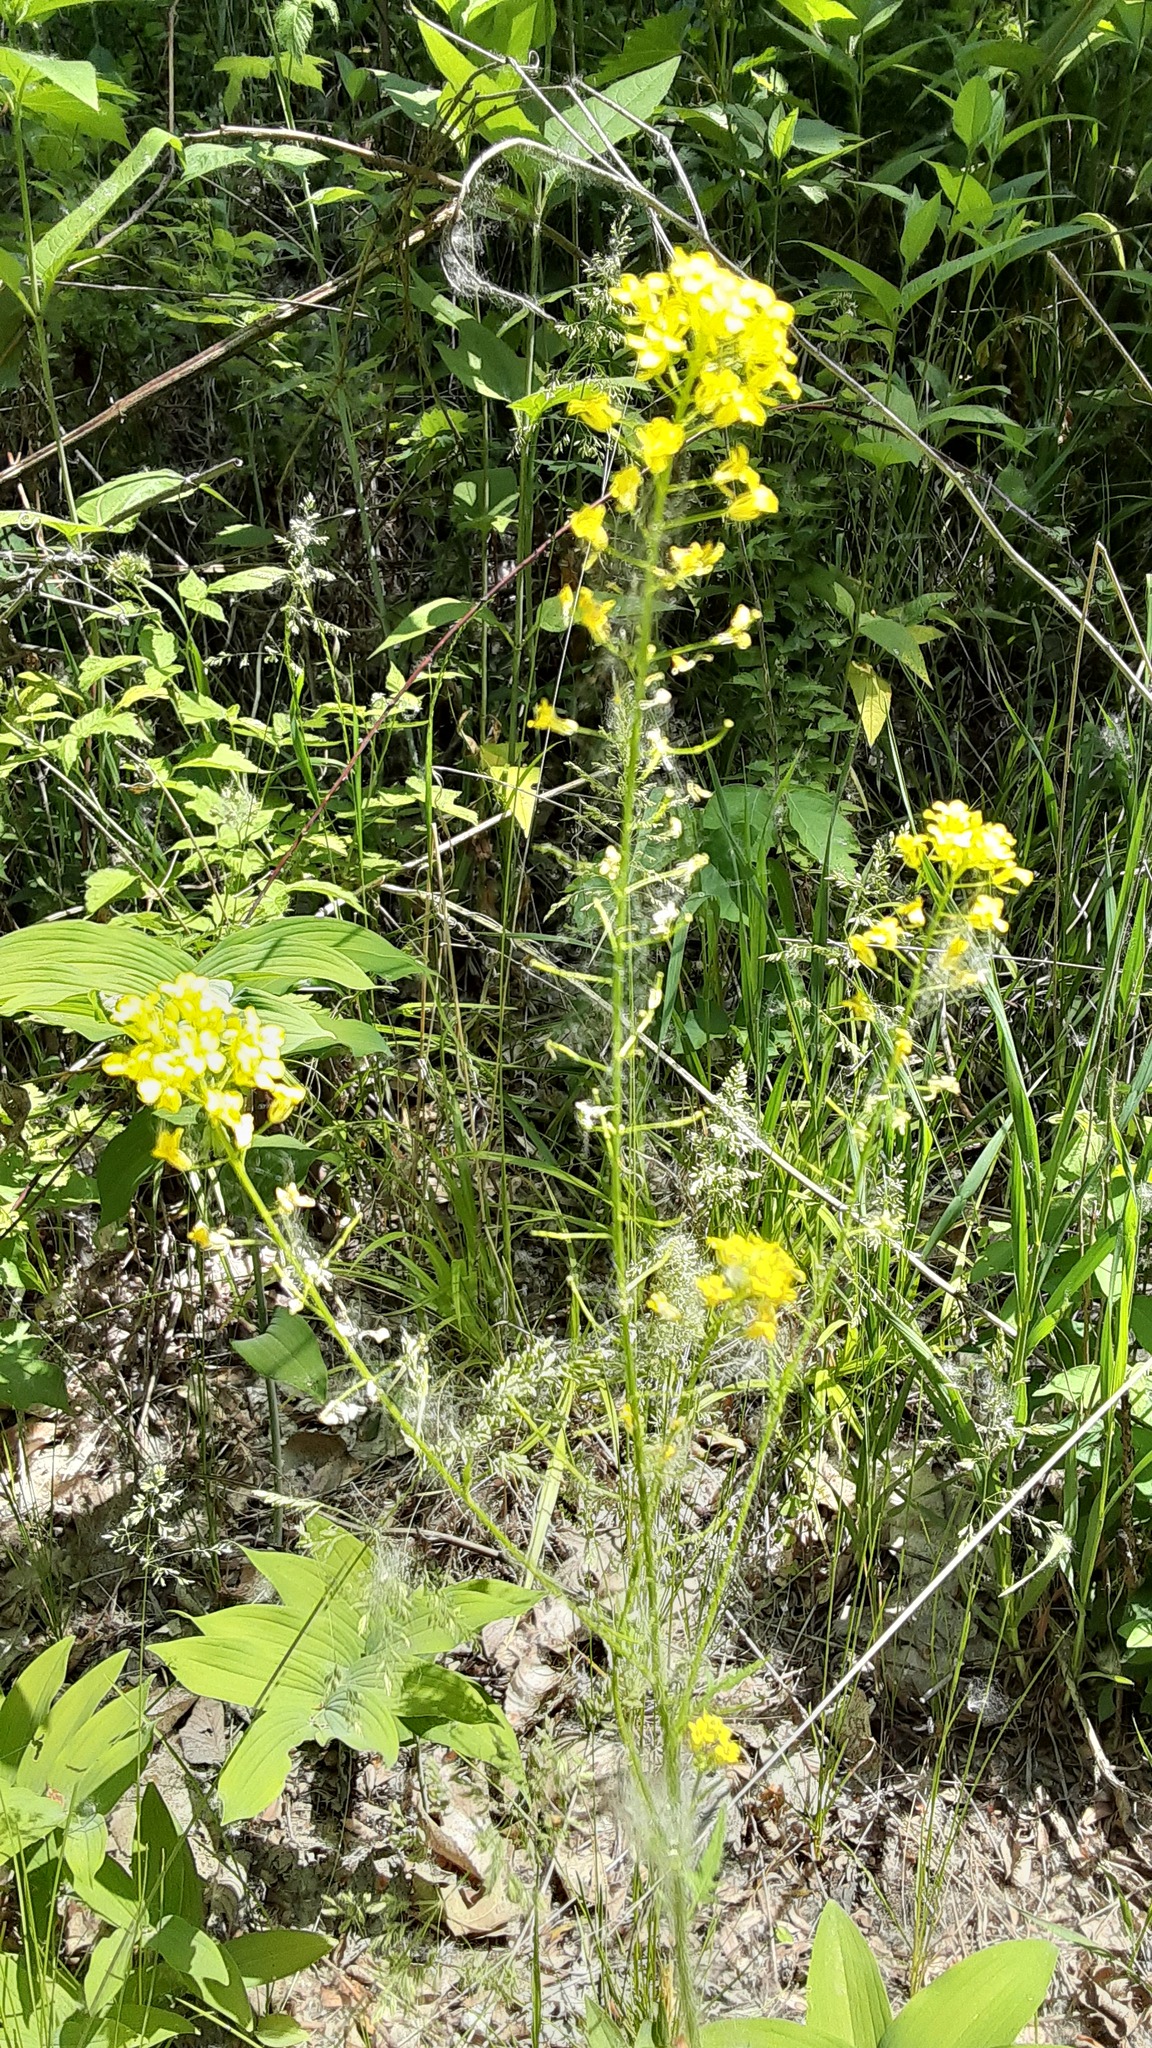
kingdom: Plantae
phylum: Tracheophyta
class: Magnoliopsida
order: Brassicales
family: Brassicaceae
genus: Sisymbrium
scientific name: Sisymbrium loeselii
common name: False london-rocket
